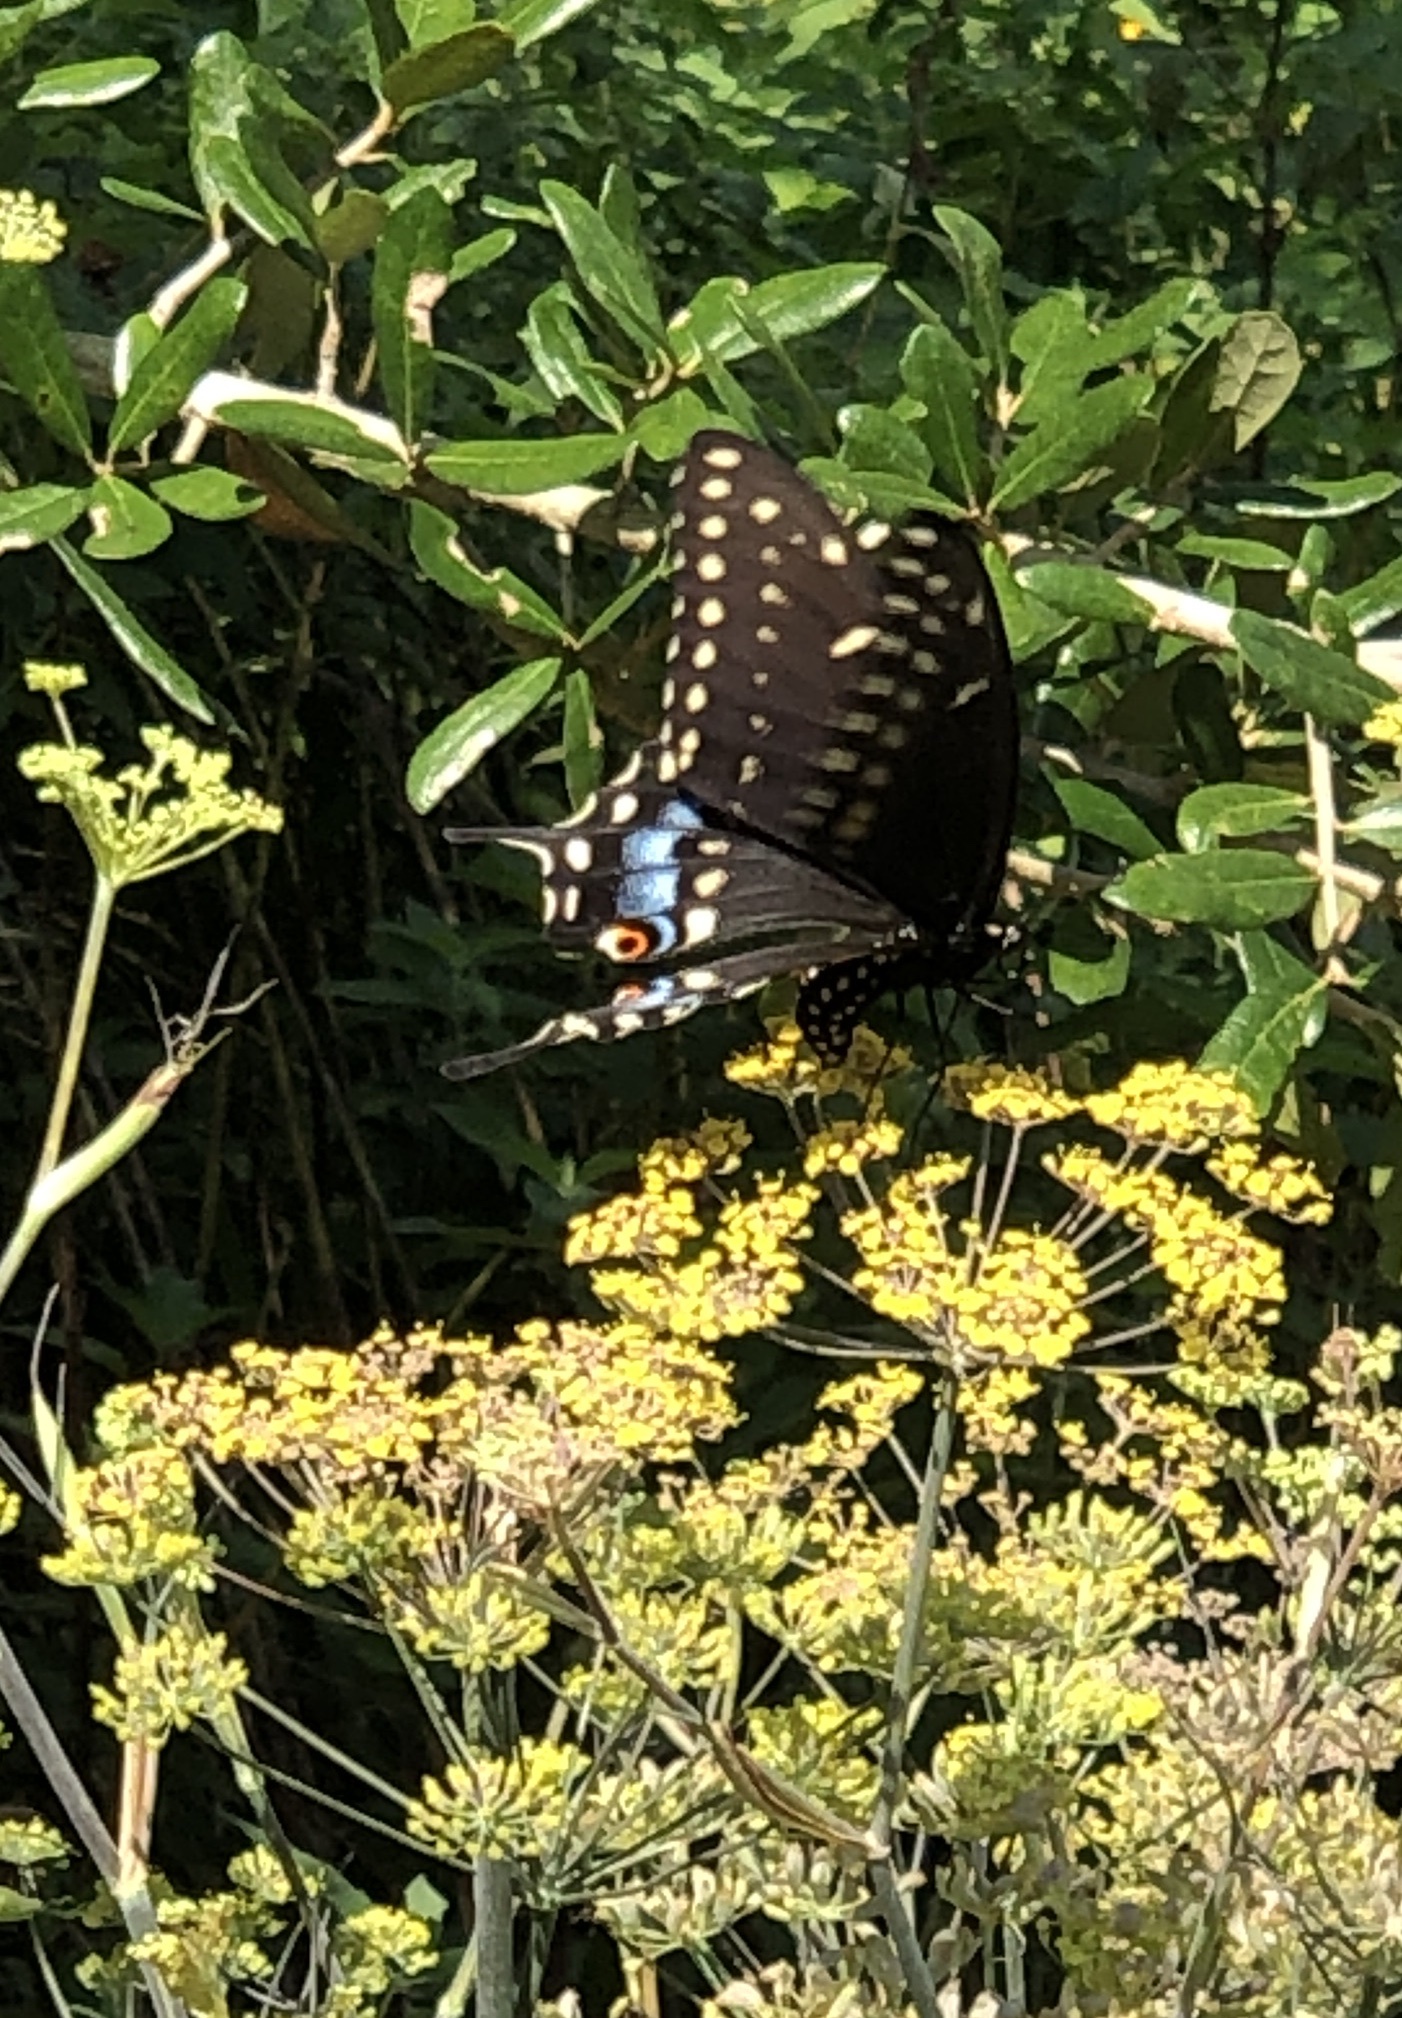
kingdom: Animalia
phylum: Arthropoda
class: Insecta
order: Lepidoptera
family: Papilionidae
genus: Papilio
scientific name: Papilio polyxenes
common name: Black swallowtail
